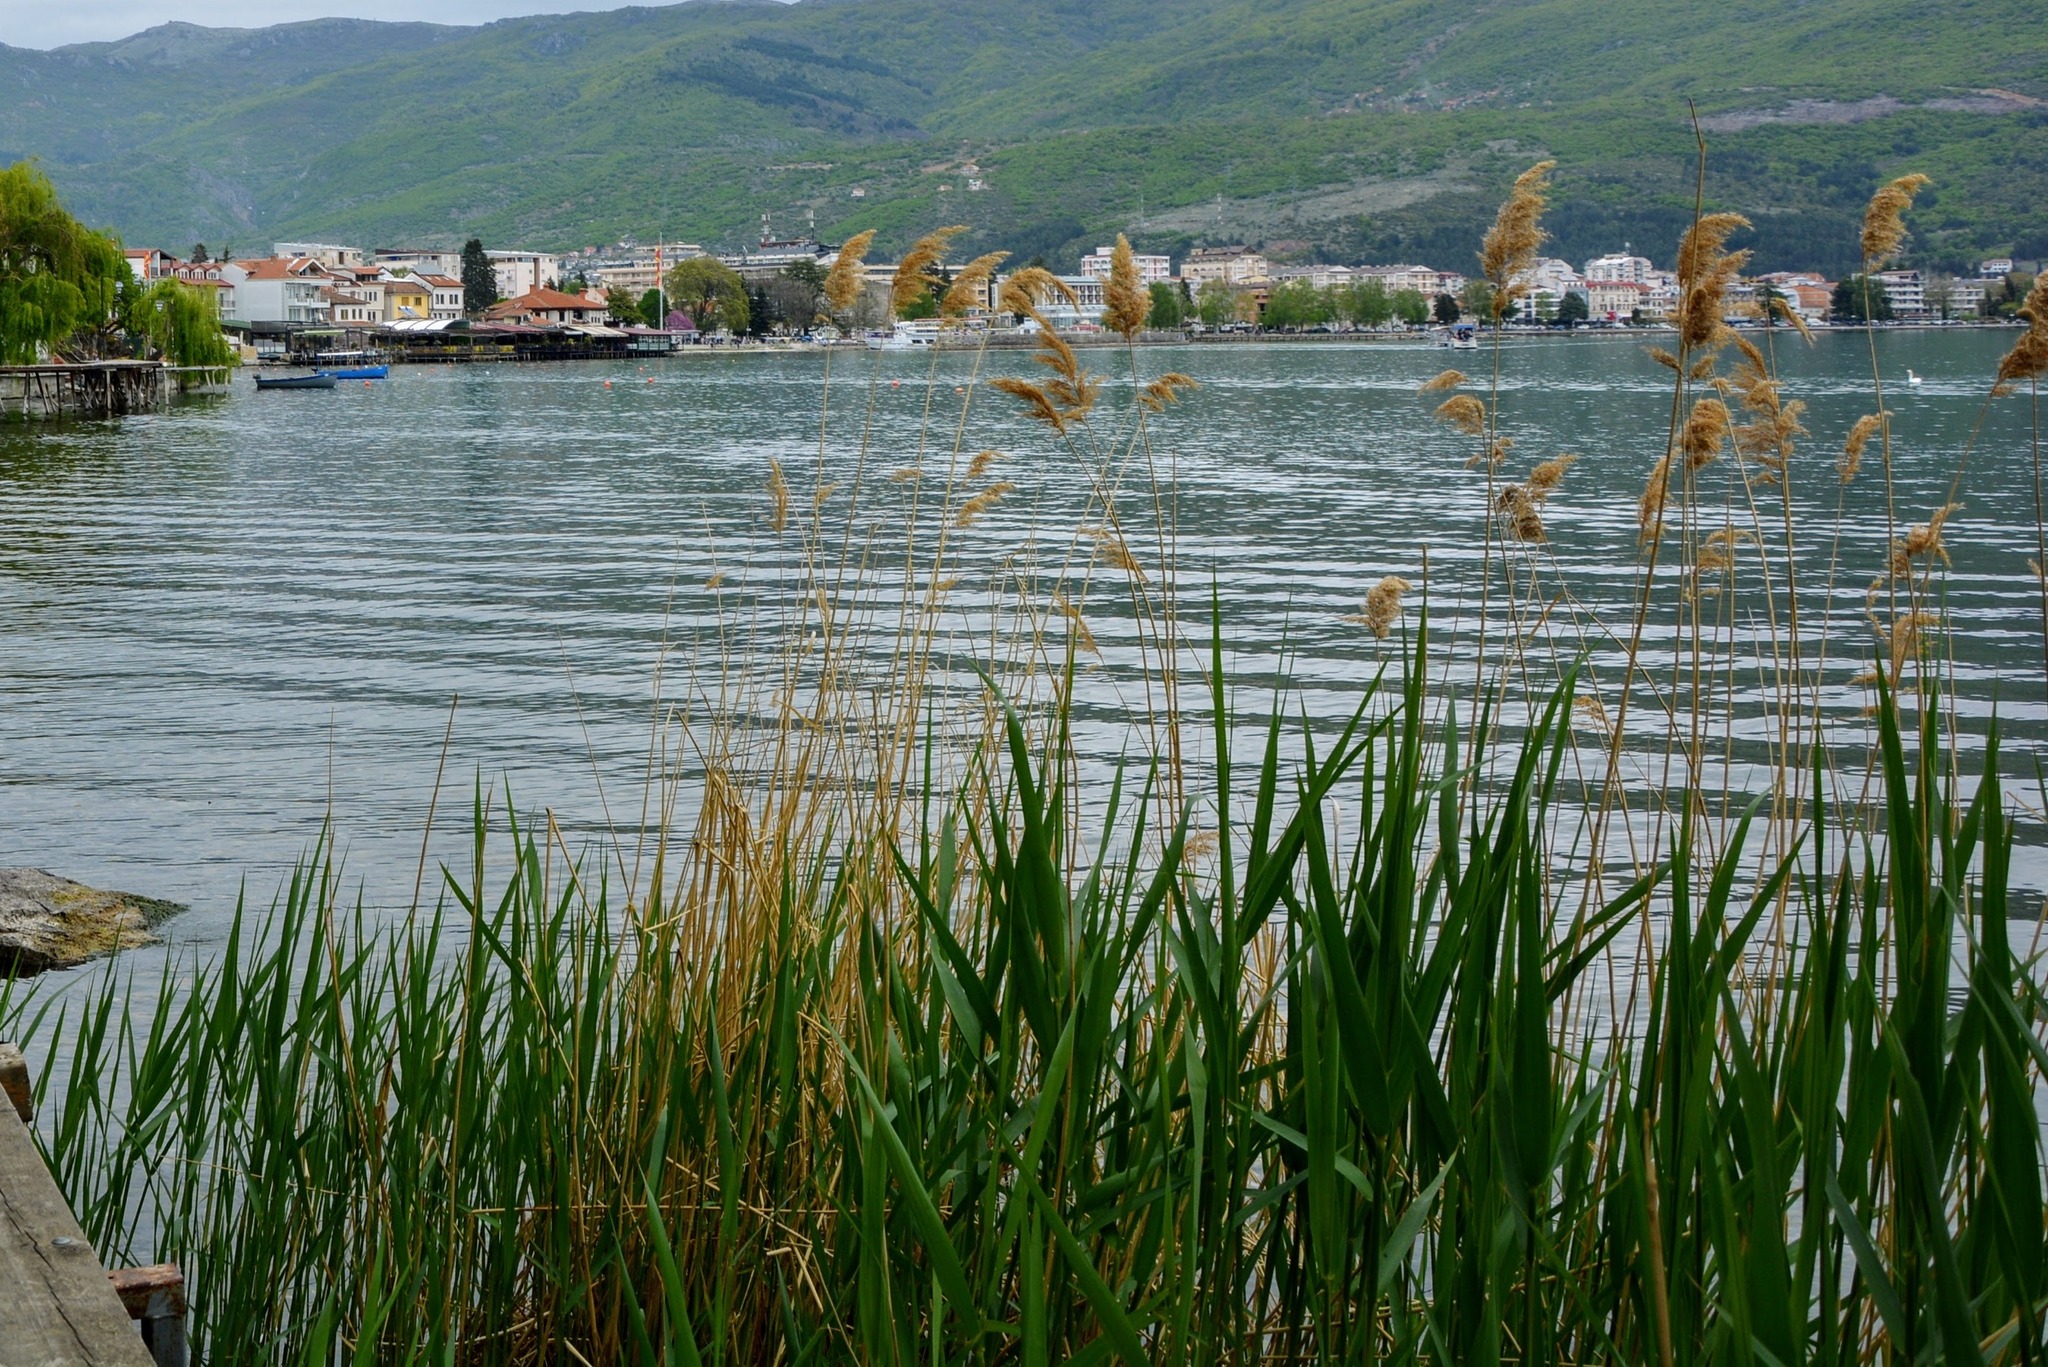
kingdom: Plantae
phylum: Tracheophyta
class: Liliopsida
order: Poales
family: Poaceae
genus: Phragmites
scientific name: Phragmites australis
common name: Common reed
